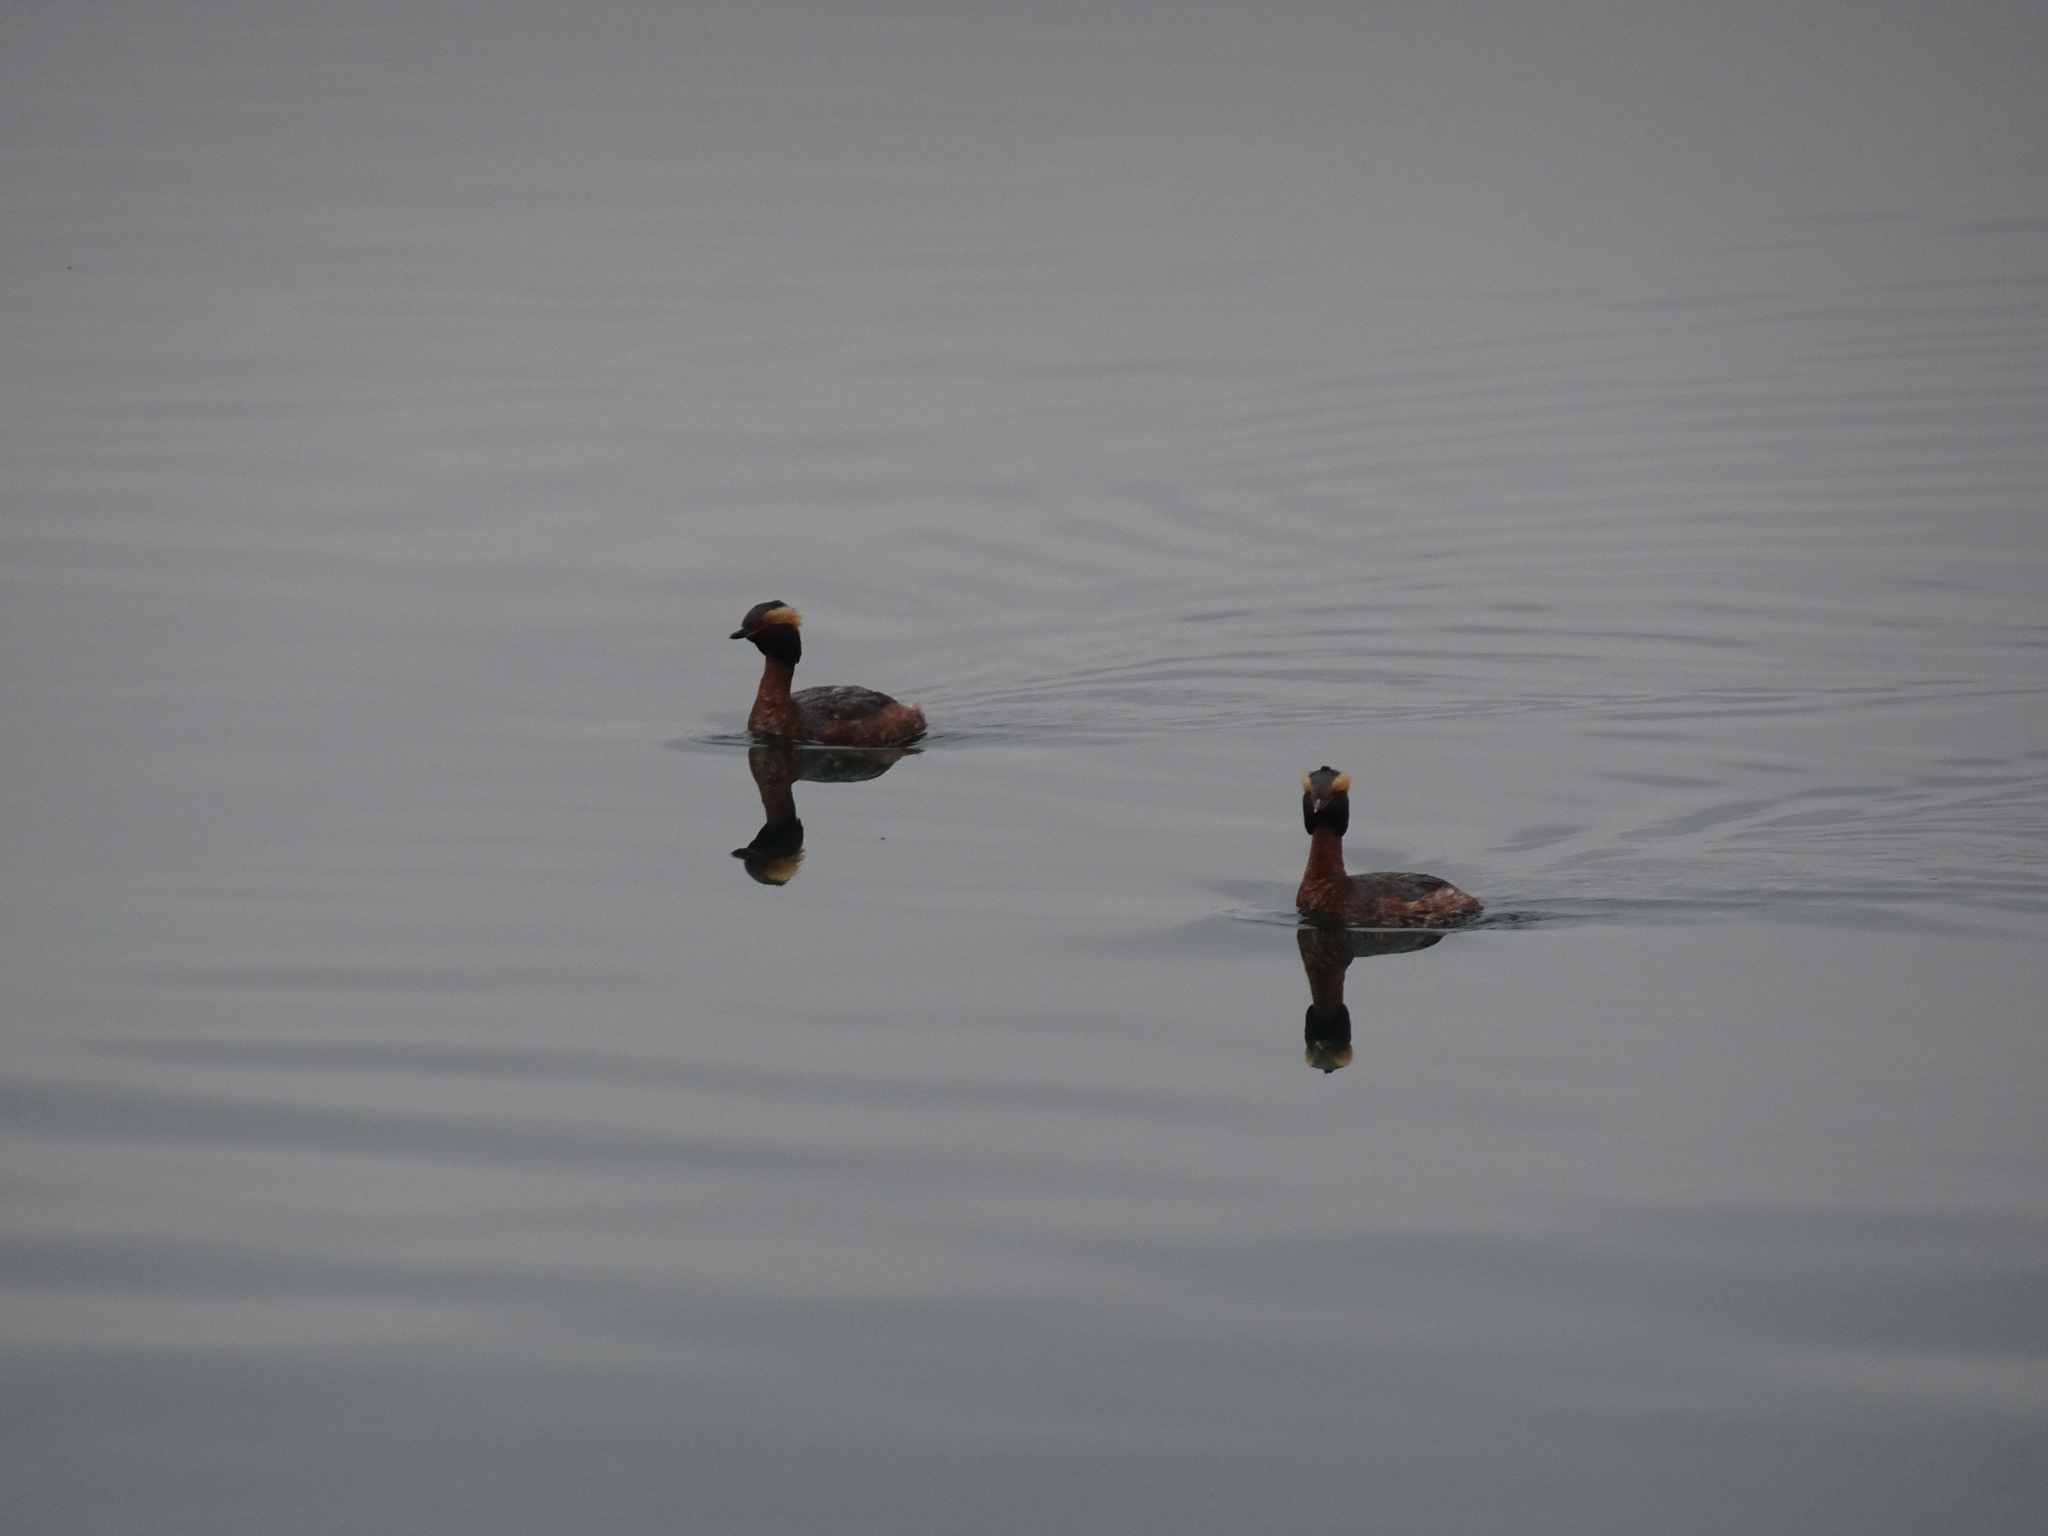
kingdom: Animalia
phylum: Chordata
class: Aves
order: Podicipediformes
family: Podicipedidae
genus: Podiceps
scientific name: Podiceps auritus
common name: Horned grebe
